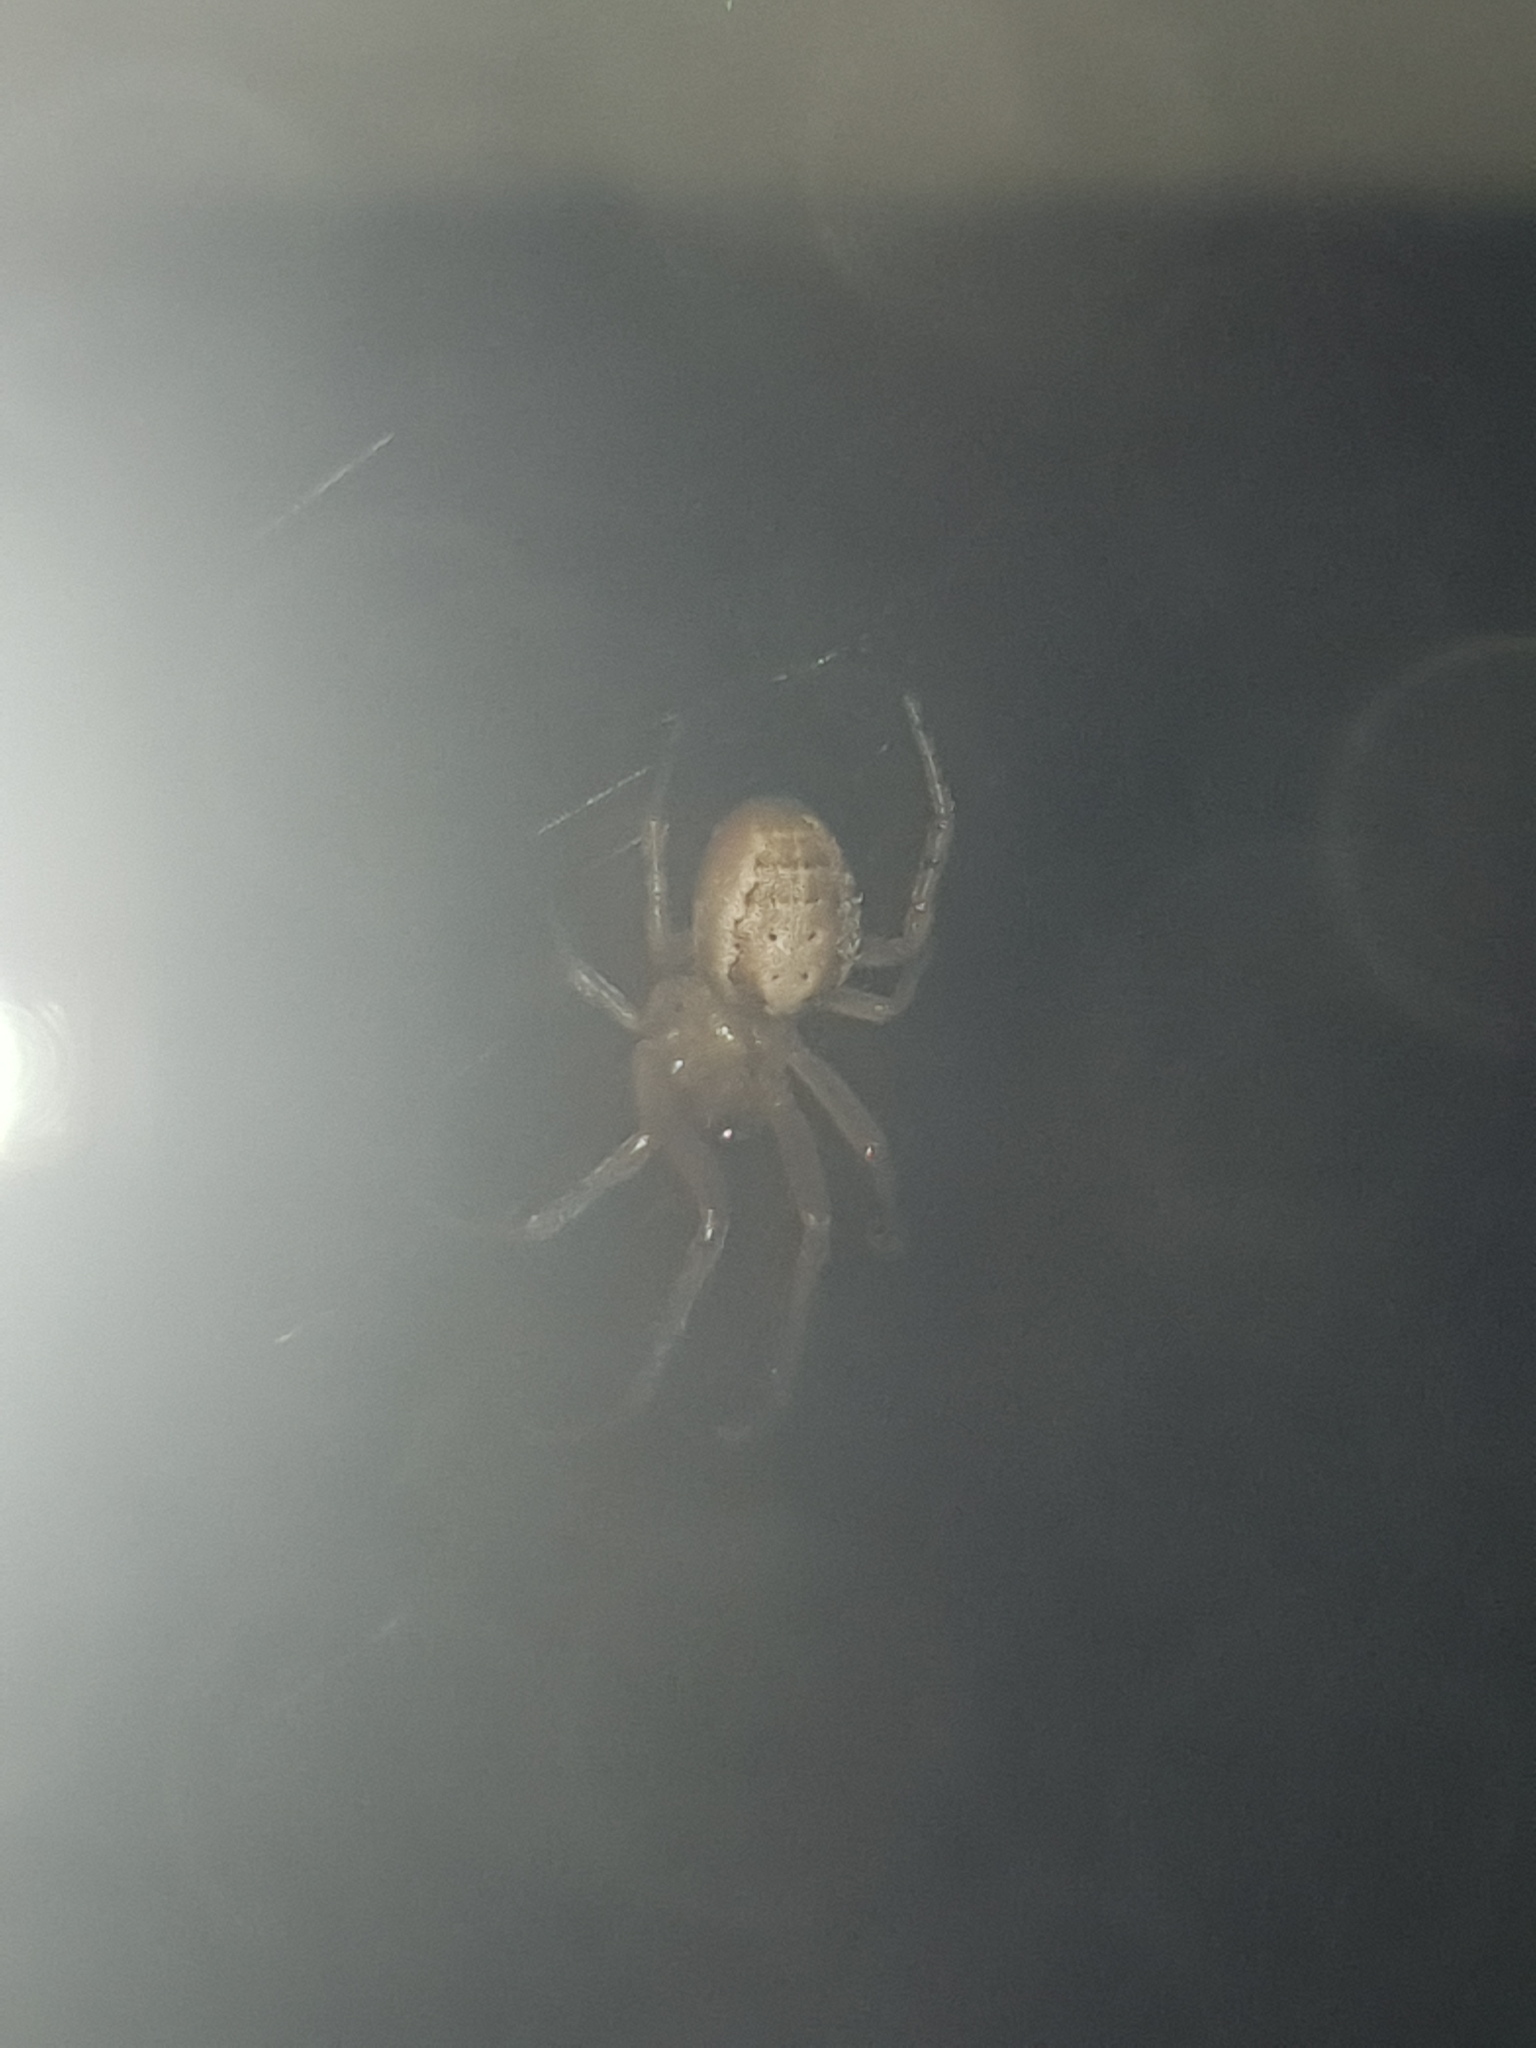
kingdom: Animalia
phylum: Arthropoda
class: Arachnida
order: Araneae
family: Araneidae
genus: Zygiella
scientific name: Zygiella x-notata
